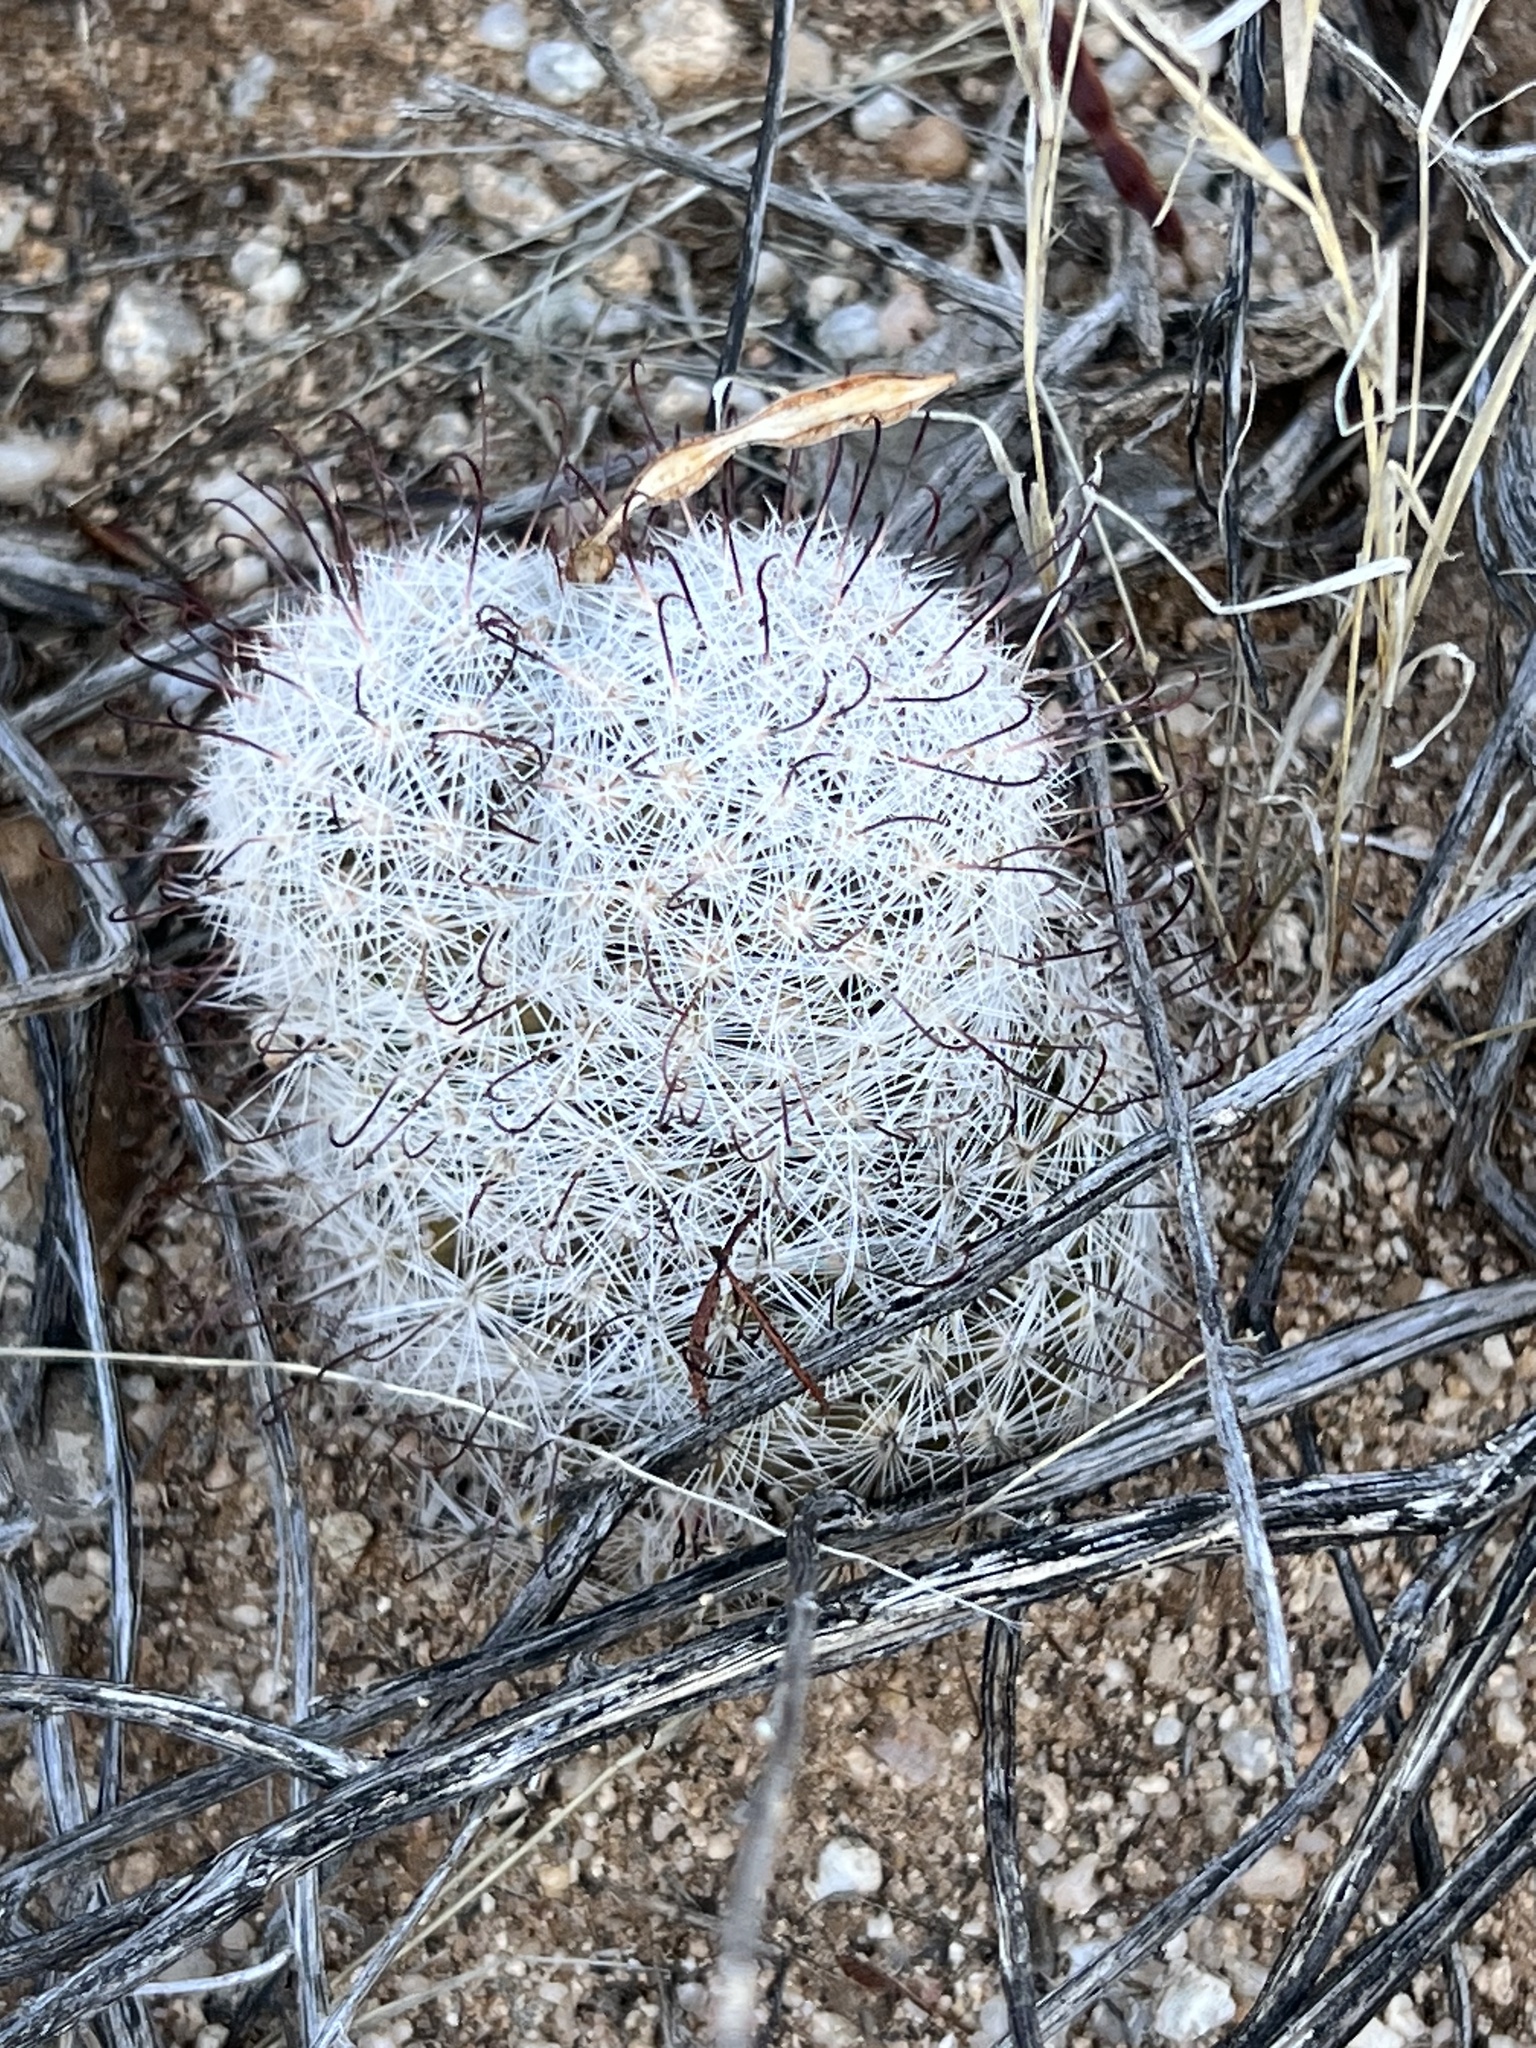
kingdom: Plantae
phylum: Tracheophyta
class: Magnoliopsida
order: Caryophyllales
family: Cactaceae
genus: Cochemiea
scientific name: Cochemiea grahamii
